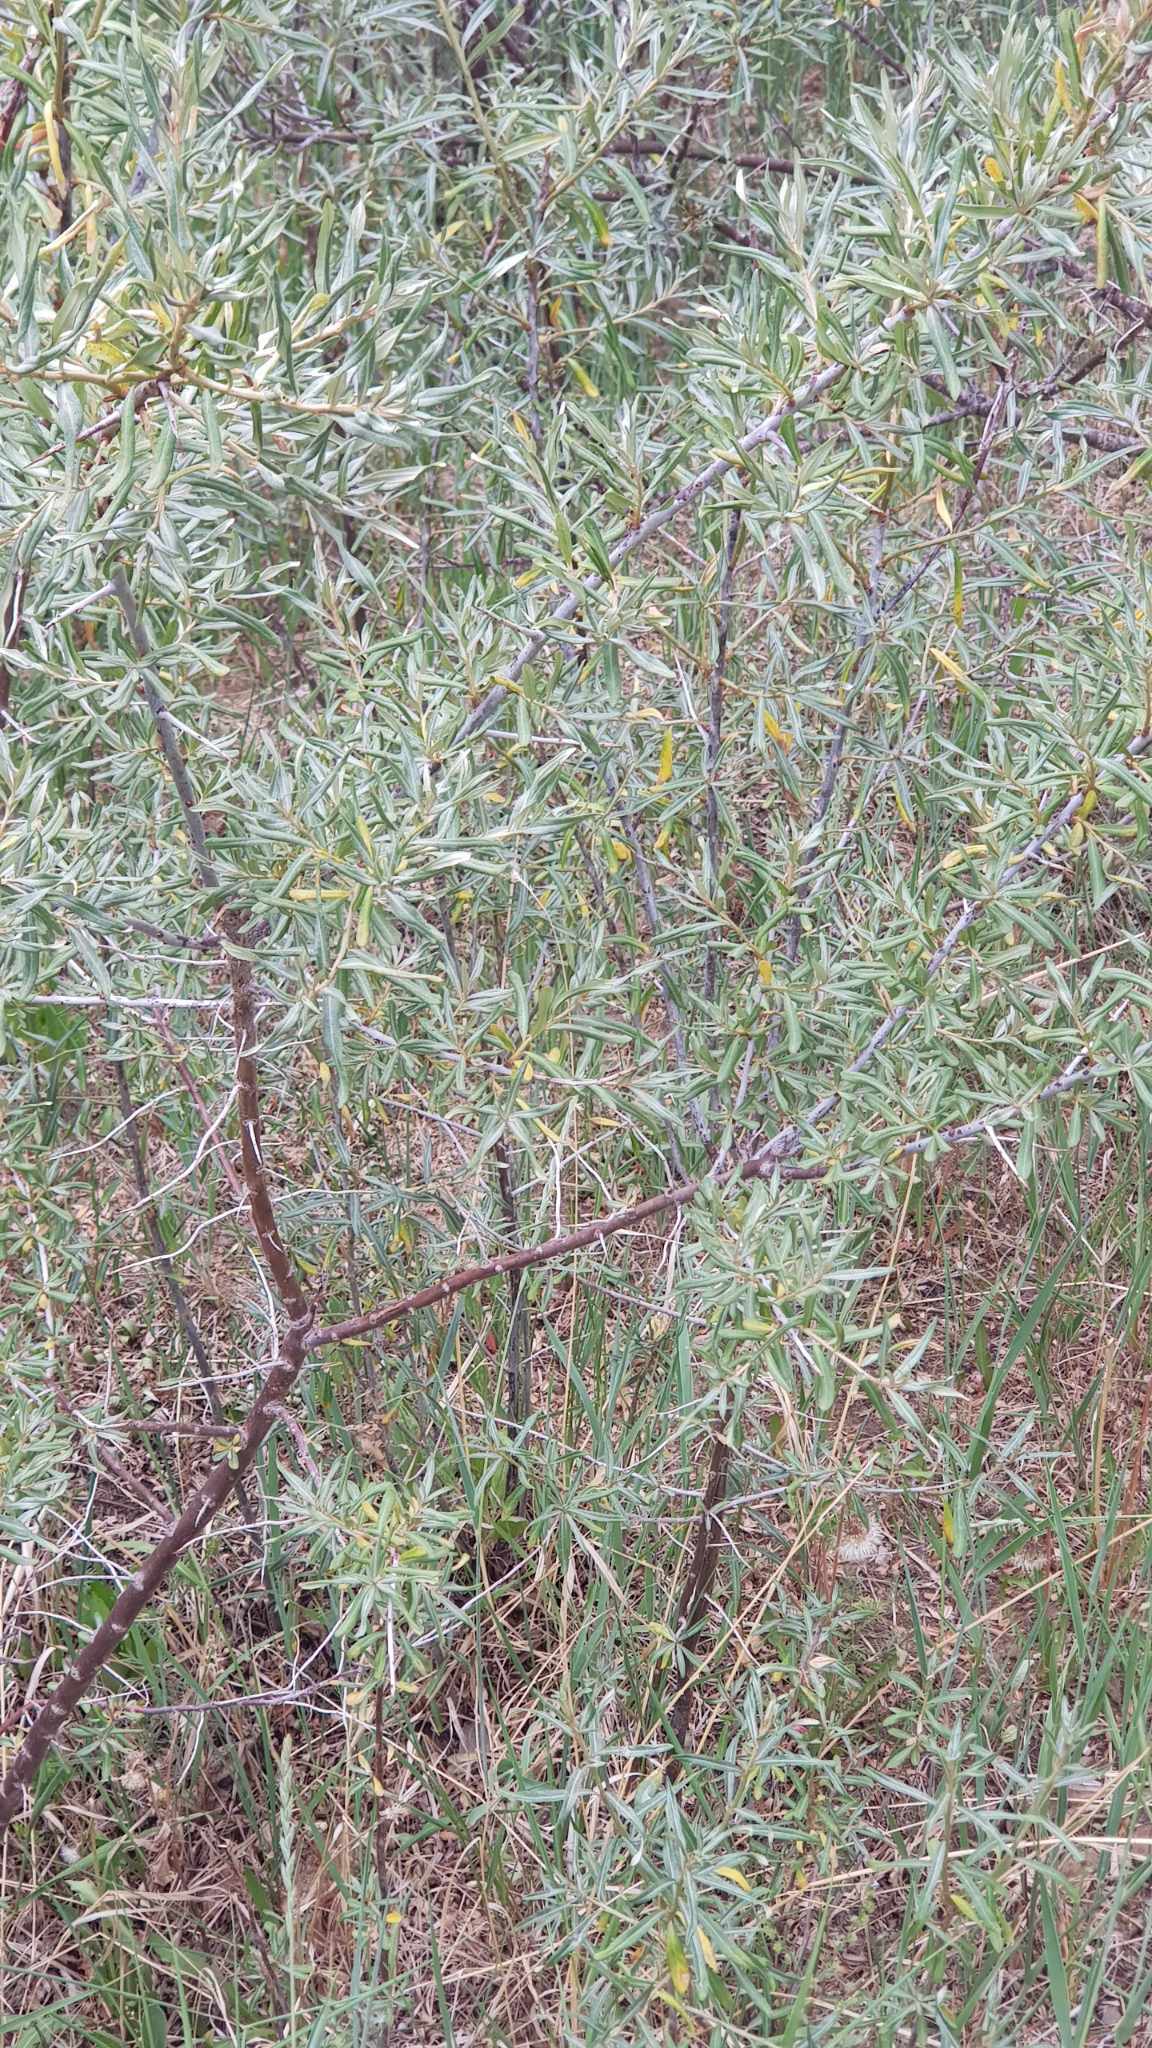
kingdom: Plantae
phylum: Tracheophyta
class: Magnoliopsida
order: Rosales
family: Elaeagnaceae
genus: Hippophae
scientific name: Hippophae rhamnoides
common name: Sea-buckthorn
